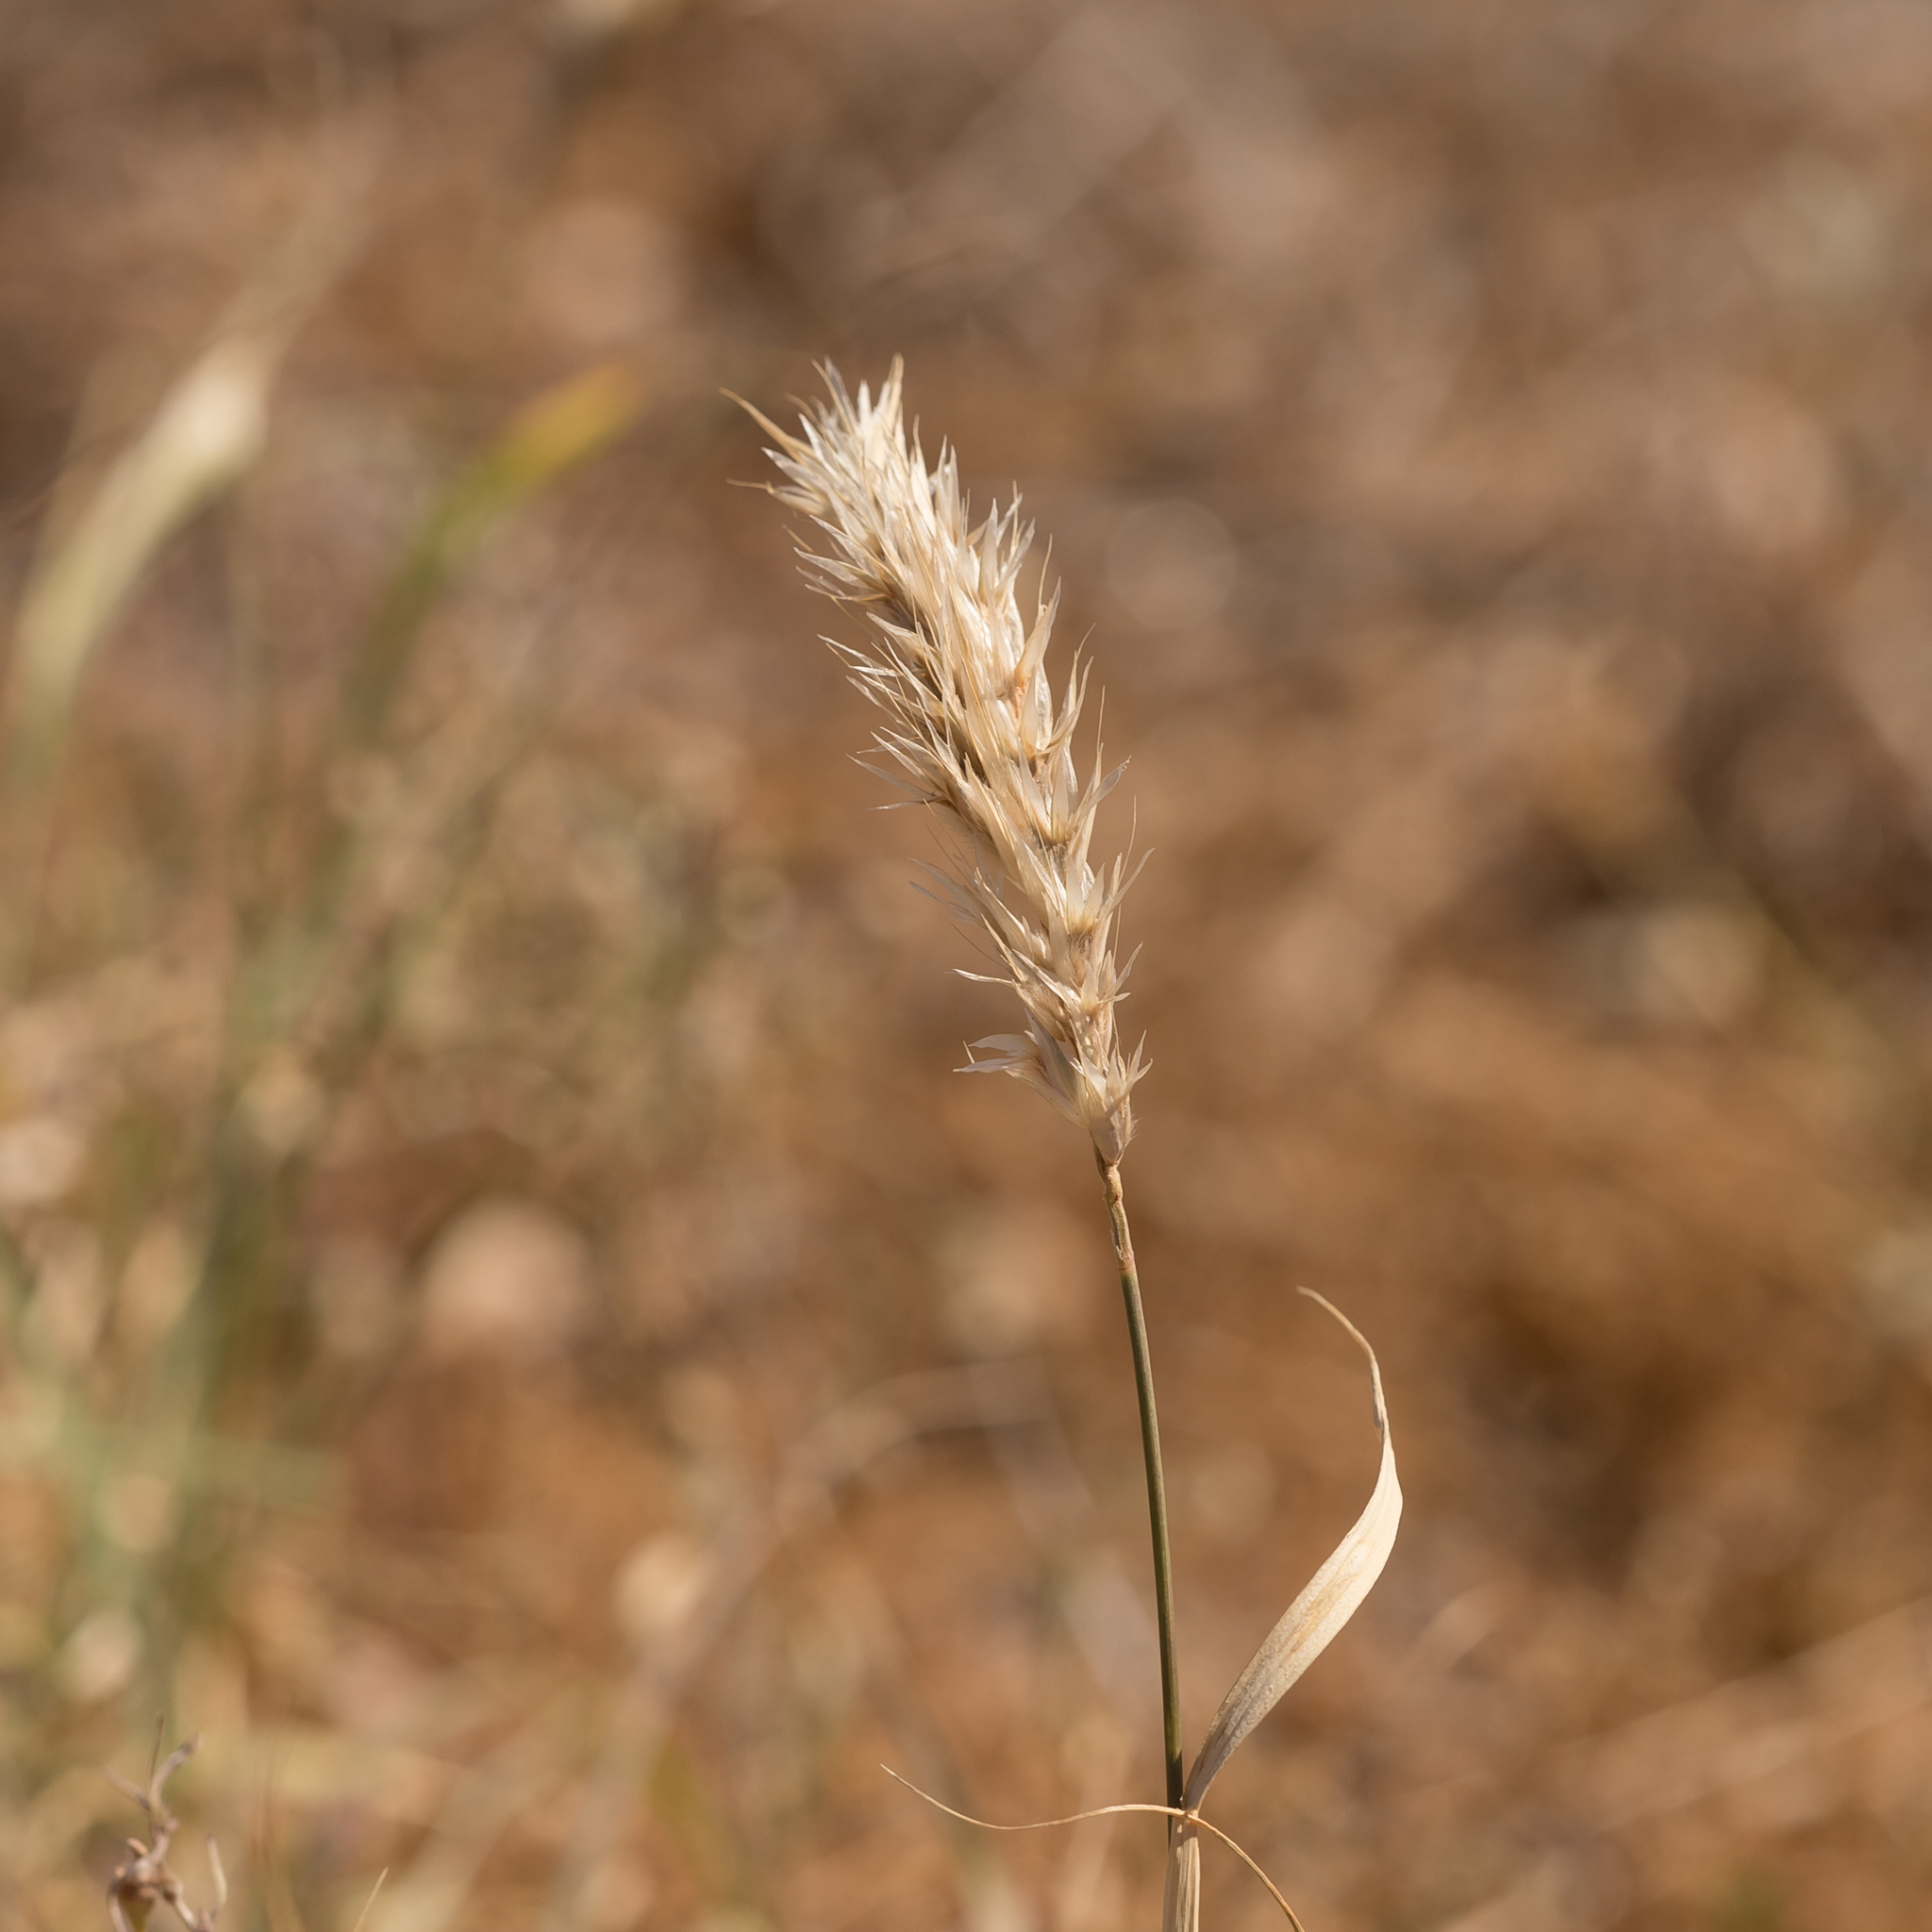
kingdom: Plantae
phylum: Tracheophyta
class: Liliopsida
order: Poales
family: Poaceae
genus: Astrebla
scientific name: Astrebla pectinata
